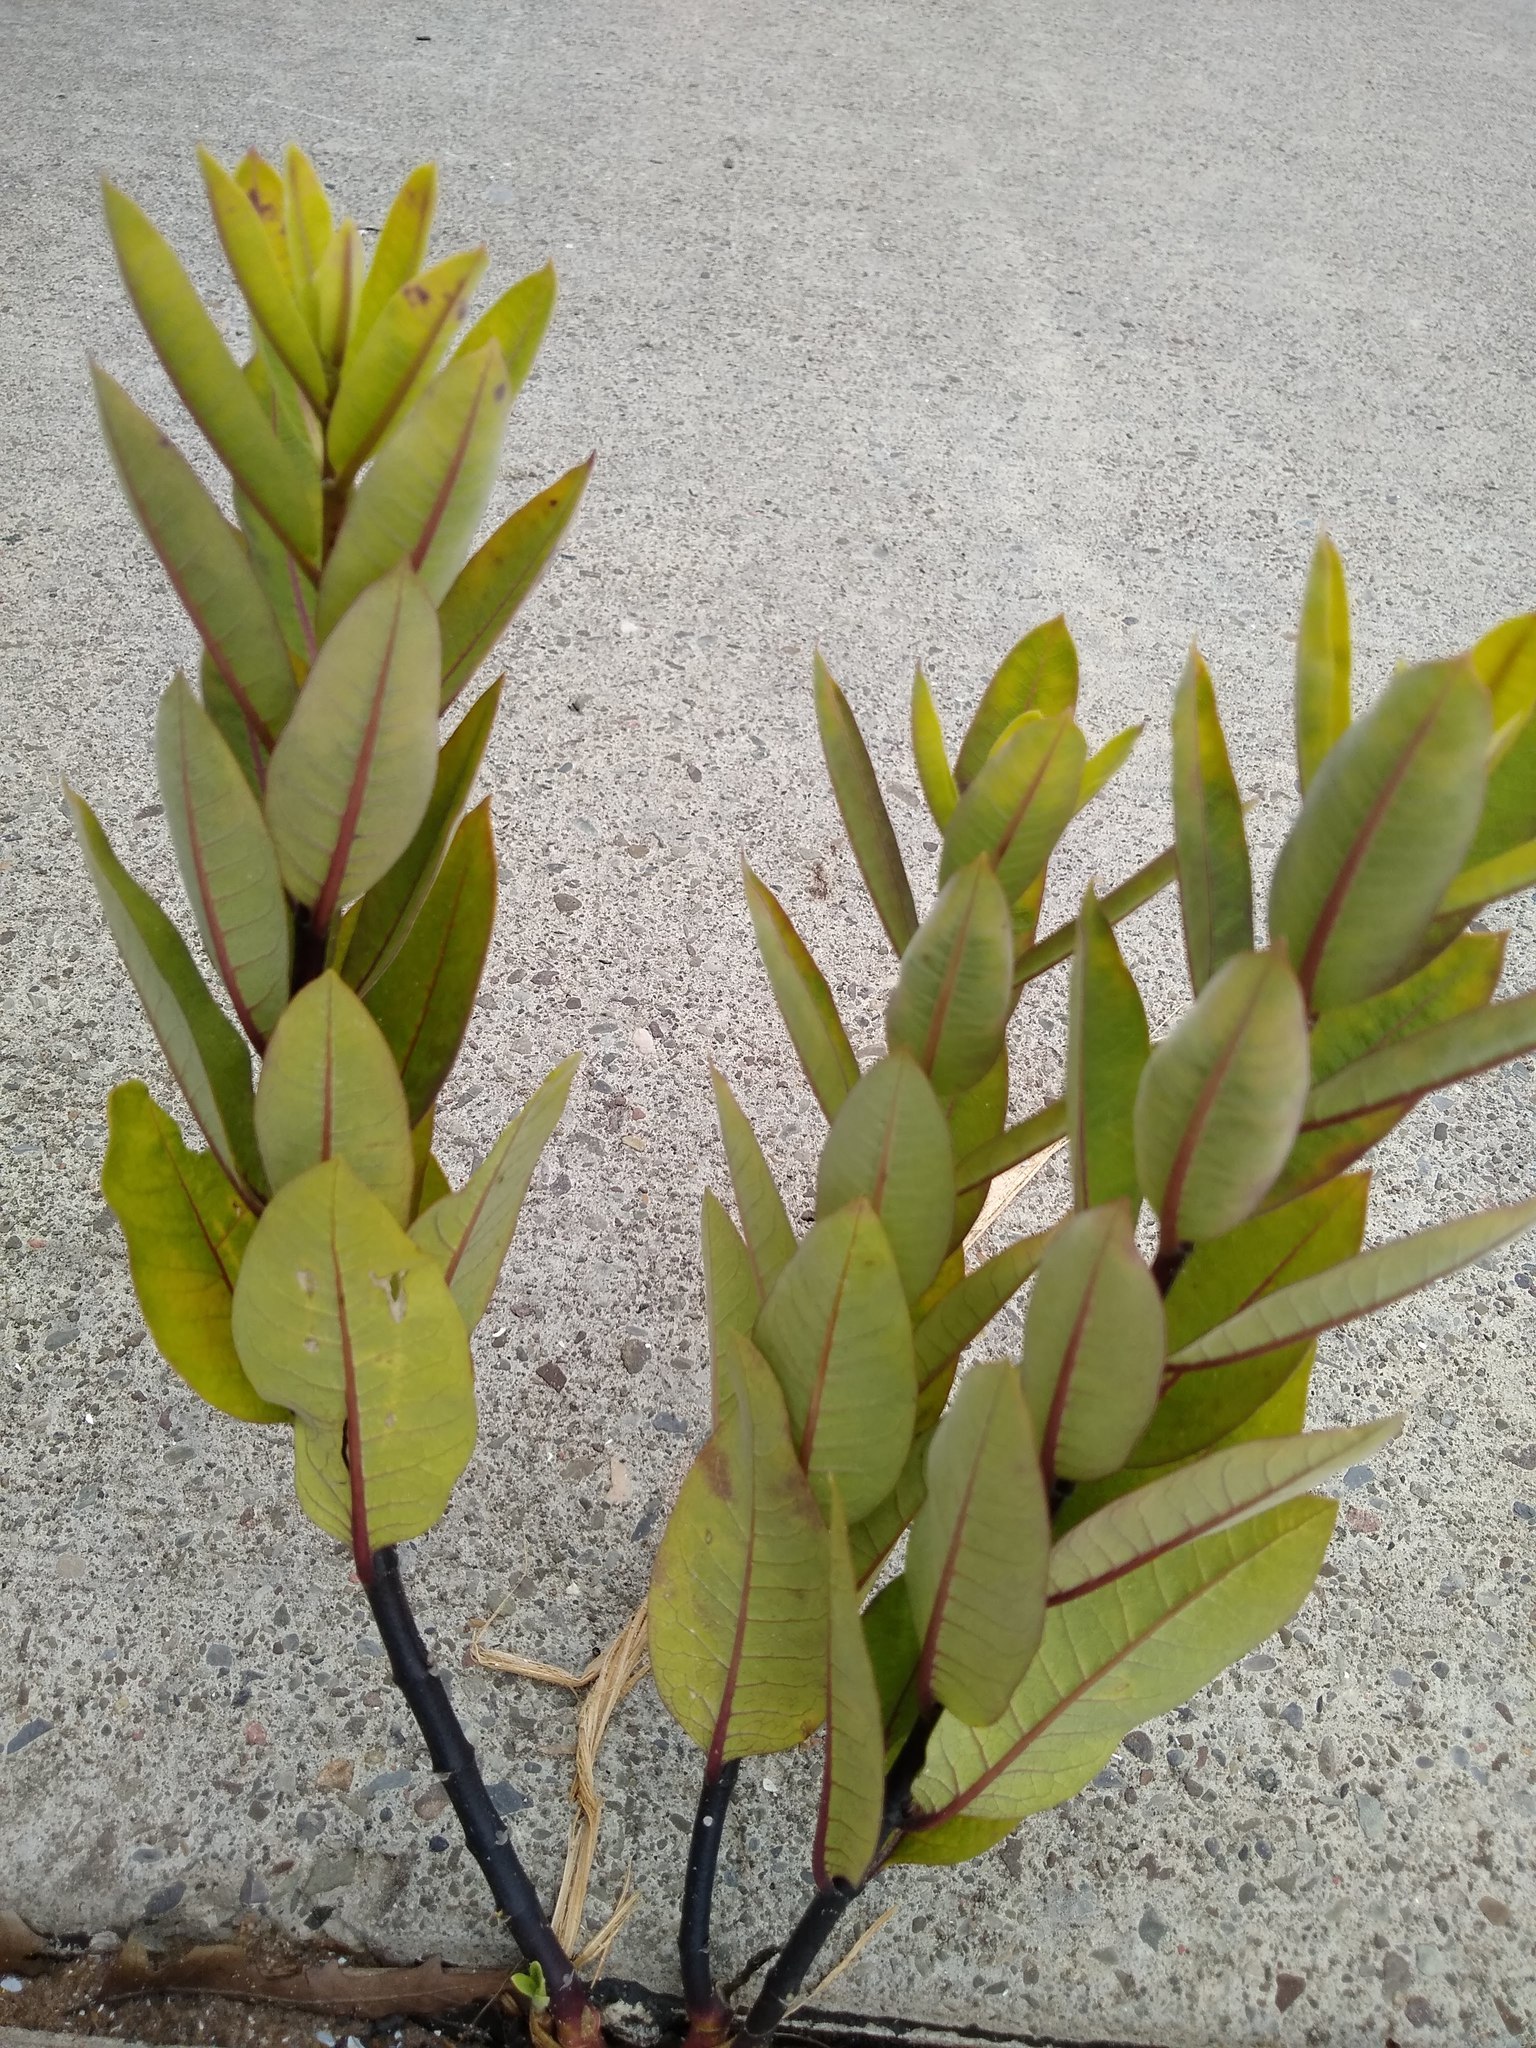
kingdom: Plantae
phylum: Tracheophyta
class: Magnoliopsida
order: Gentianales
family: Apocynaceae
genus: Asclepias
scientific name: Asclepias syriaca
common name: Common milkweed
